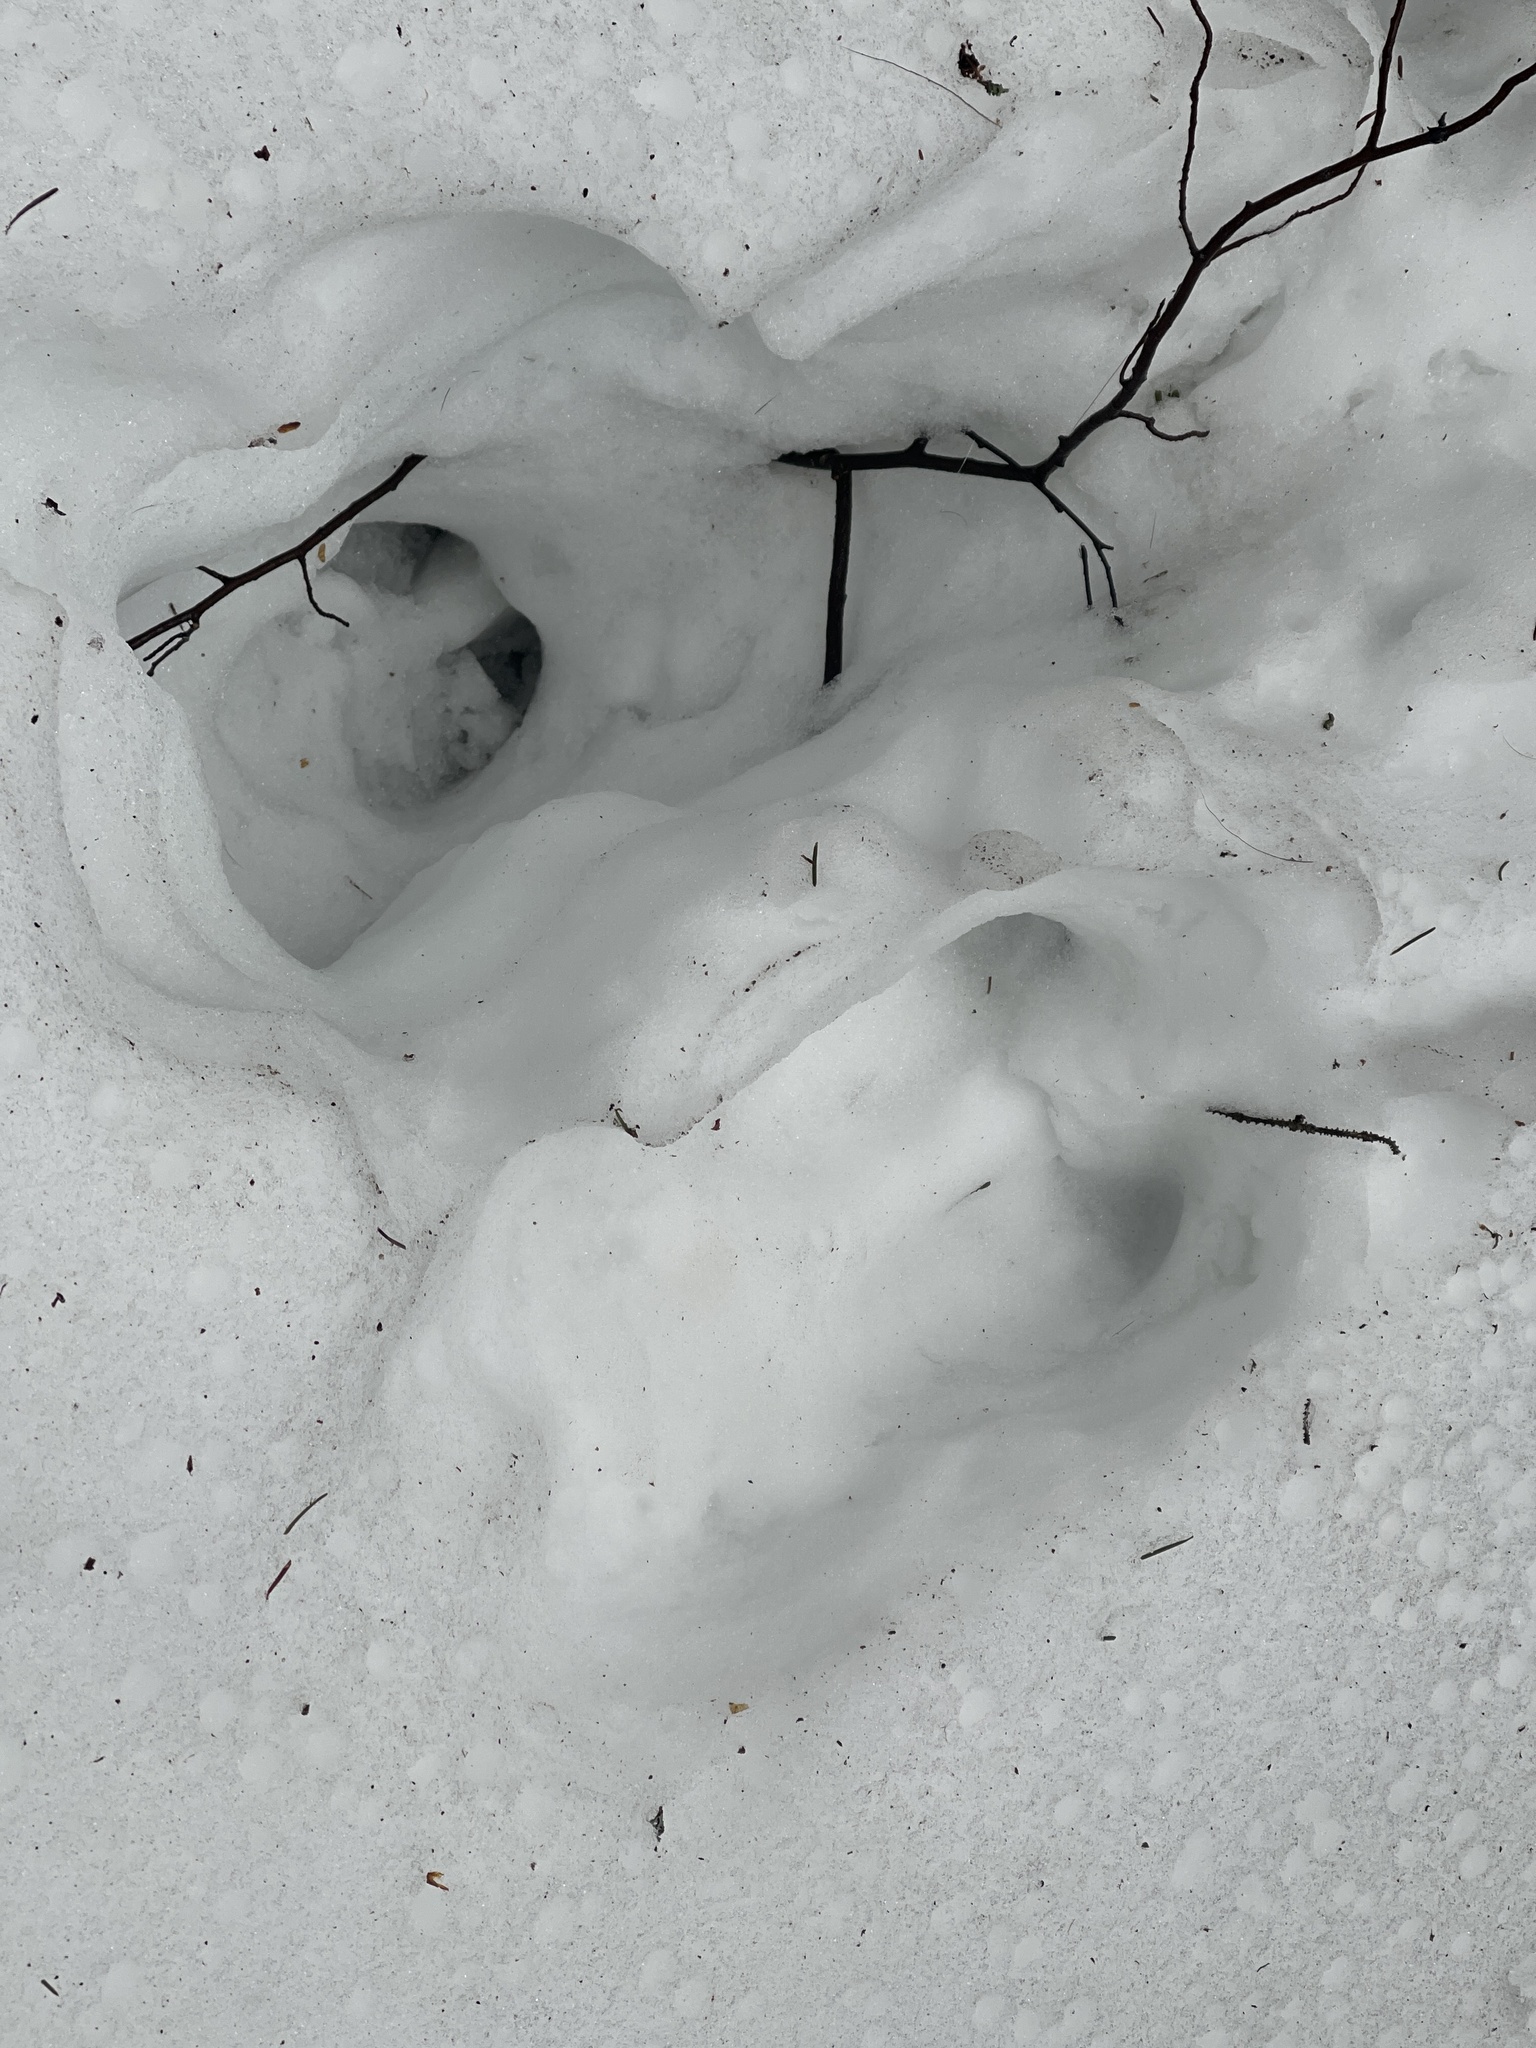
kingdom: Animalia
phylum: Chordata
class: Mammalia
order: Artiodactyla
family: Cervidae
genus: Alces
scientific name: Alces alces
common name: Moose
